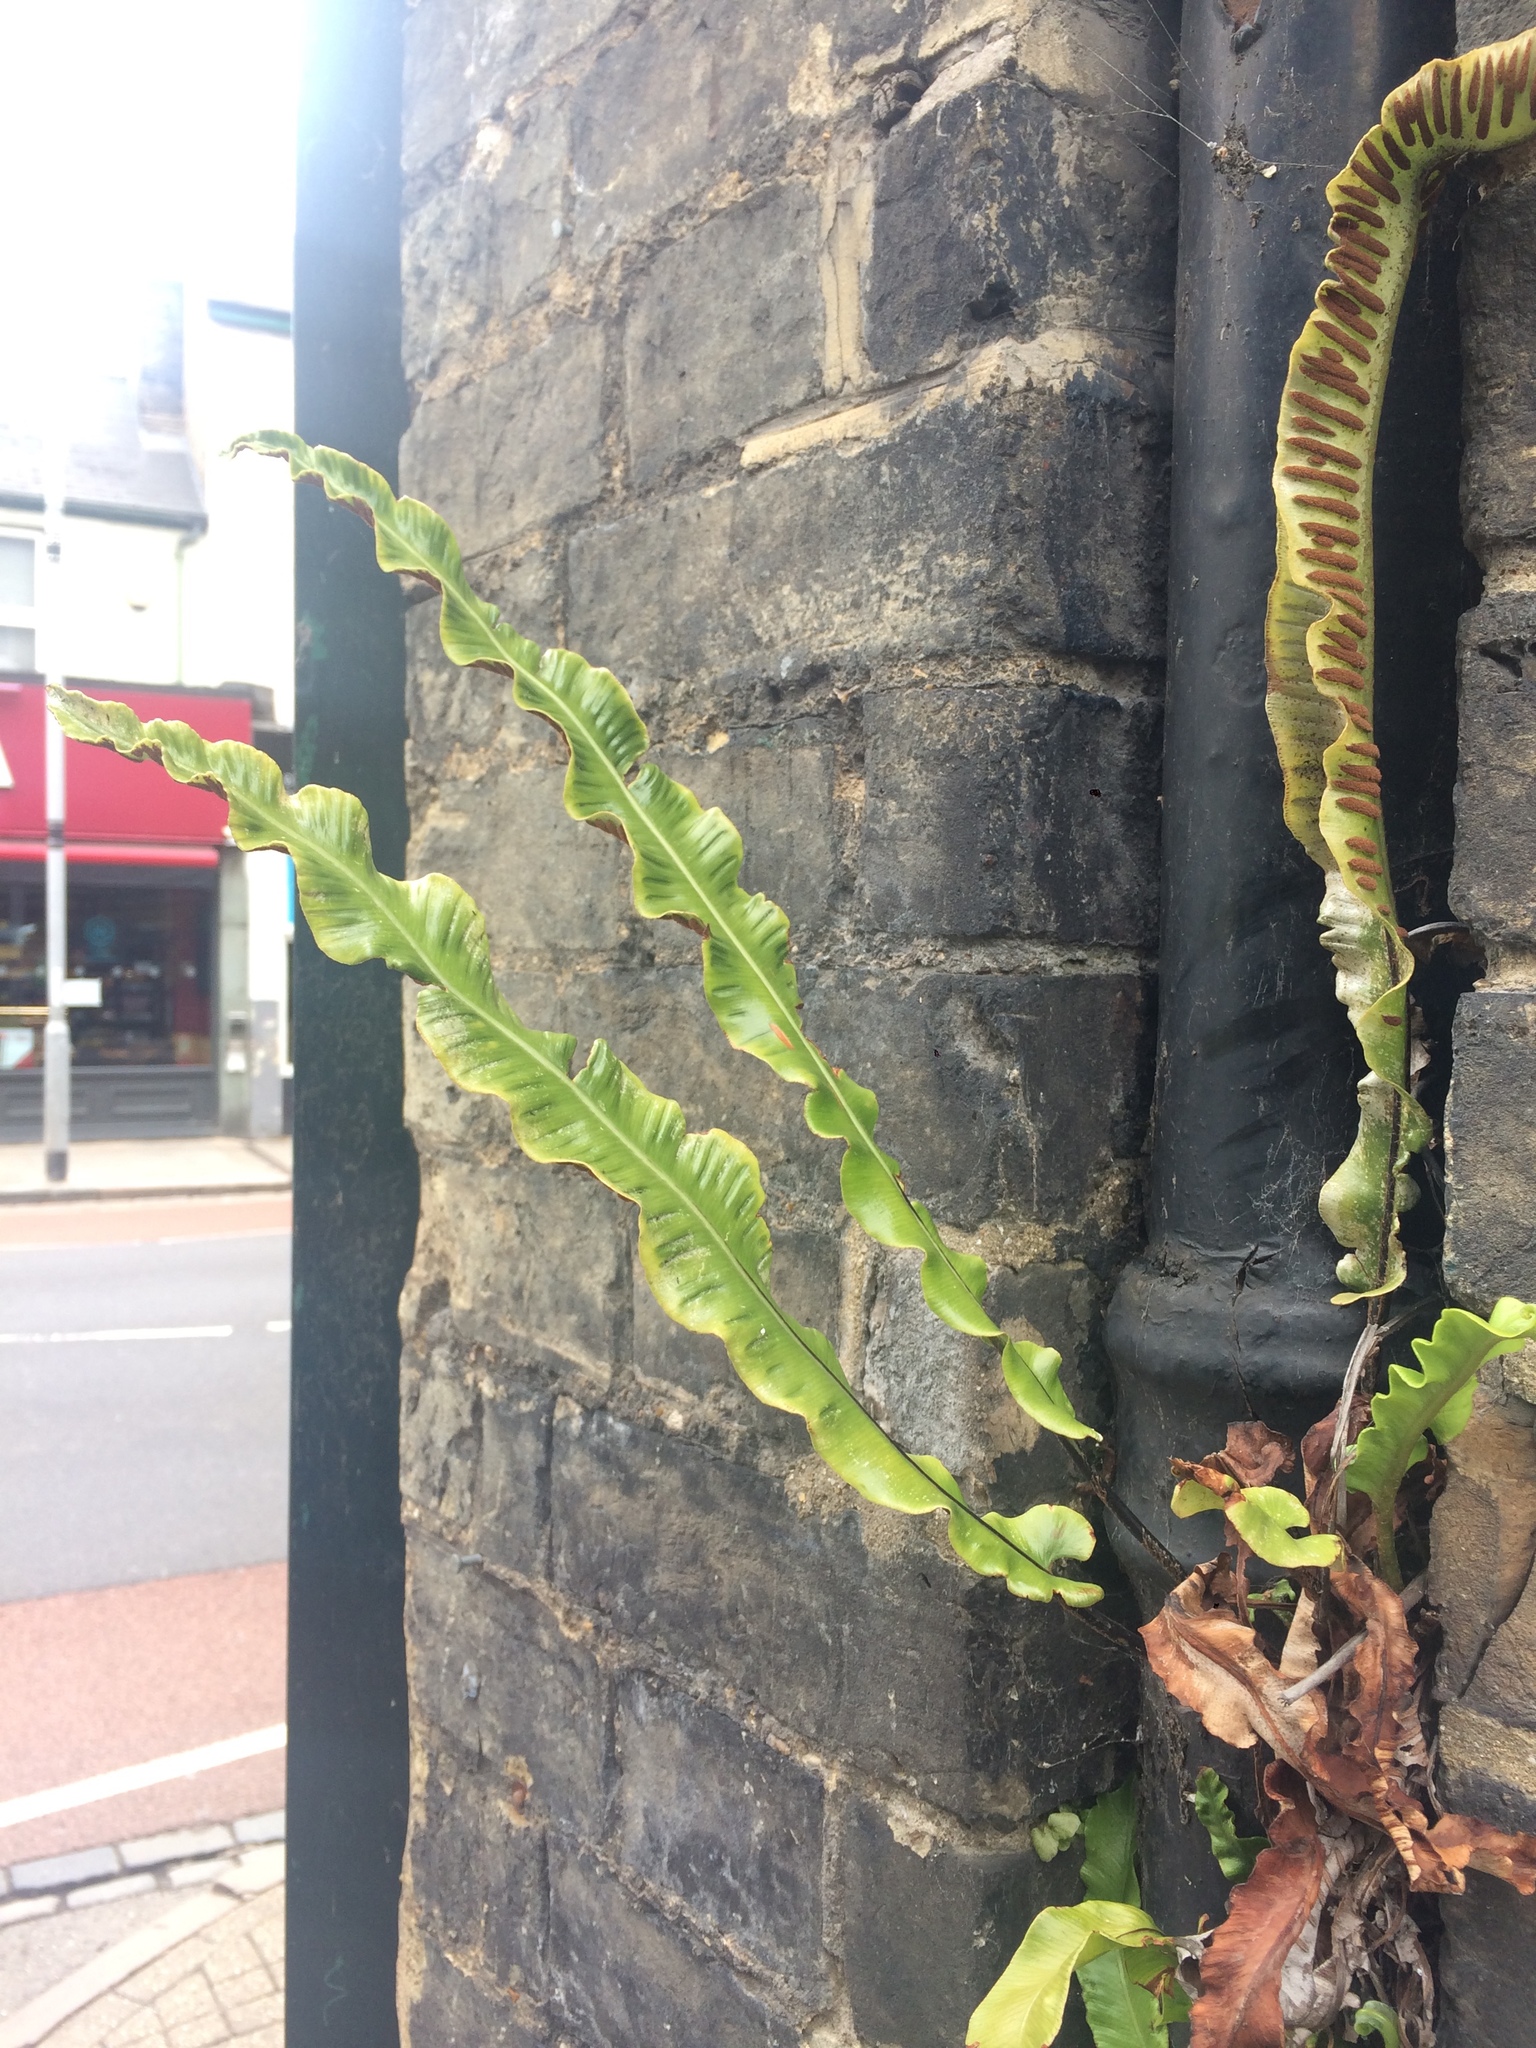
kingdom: Plantae
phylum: Tracheophyta
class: Polypodiopsida
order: Polypodiales
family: Aspleniaceae
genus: Asplenium
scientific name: Asplenium scolopendrium
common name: Hart's-tongue fern
